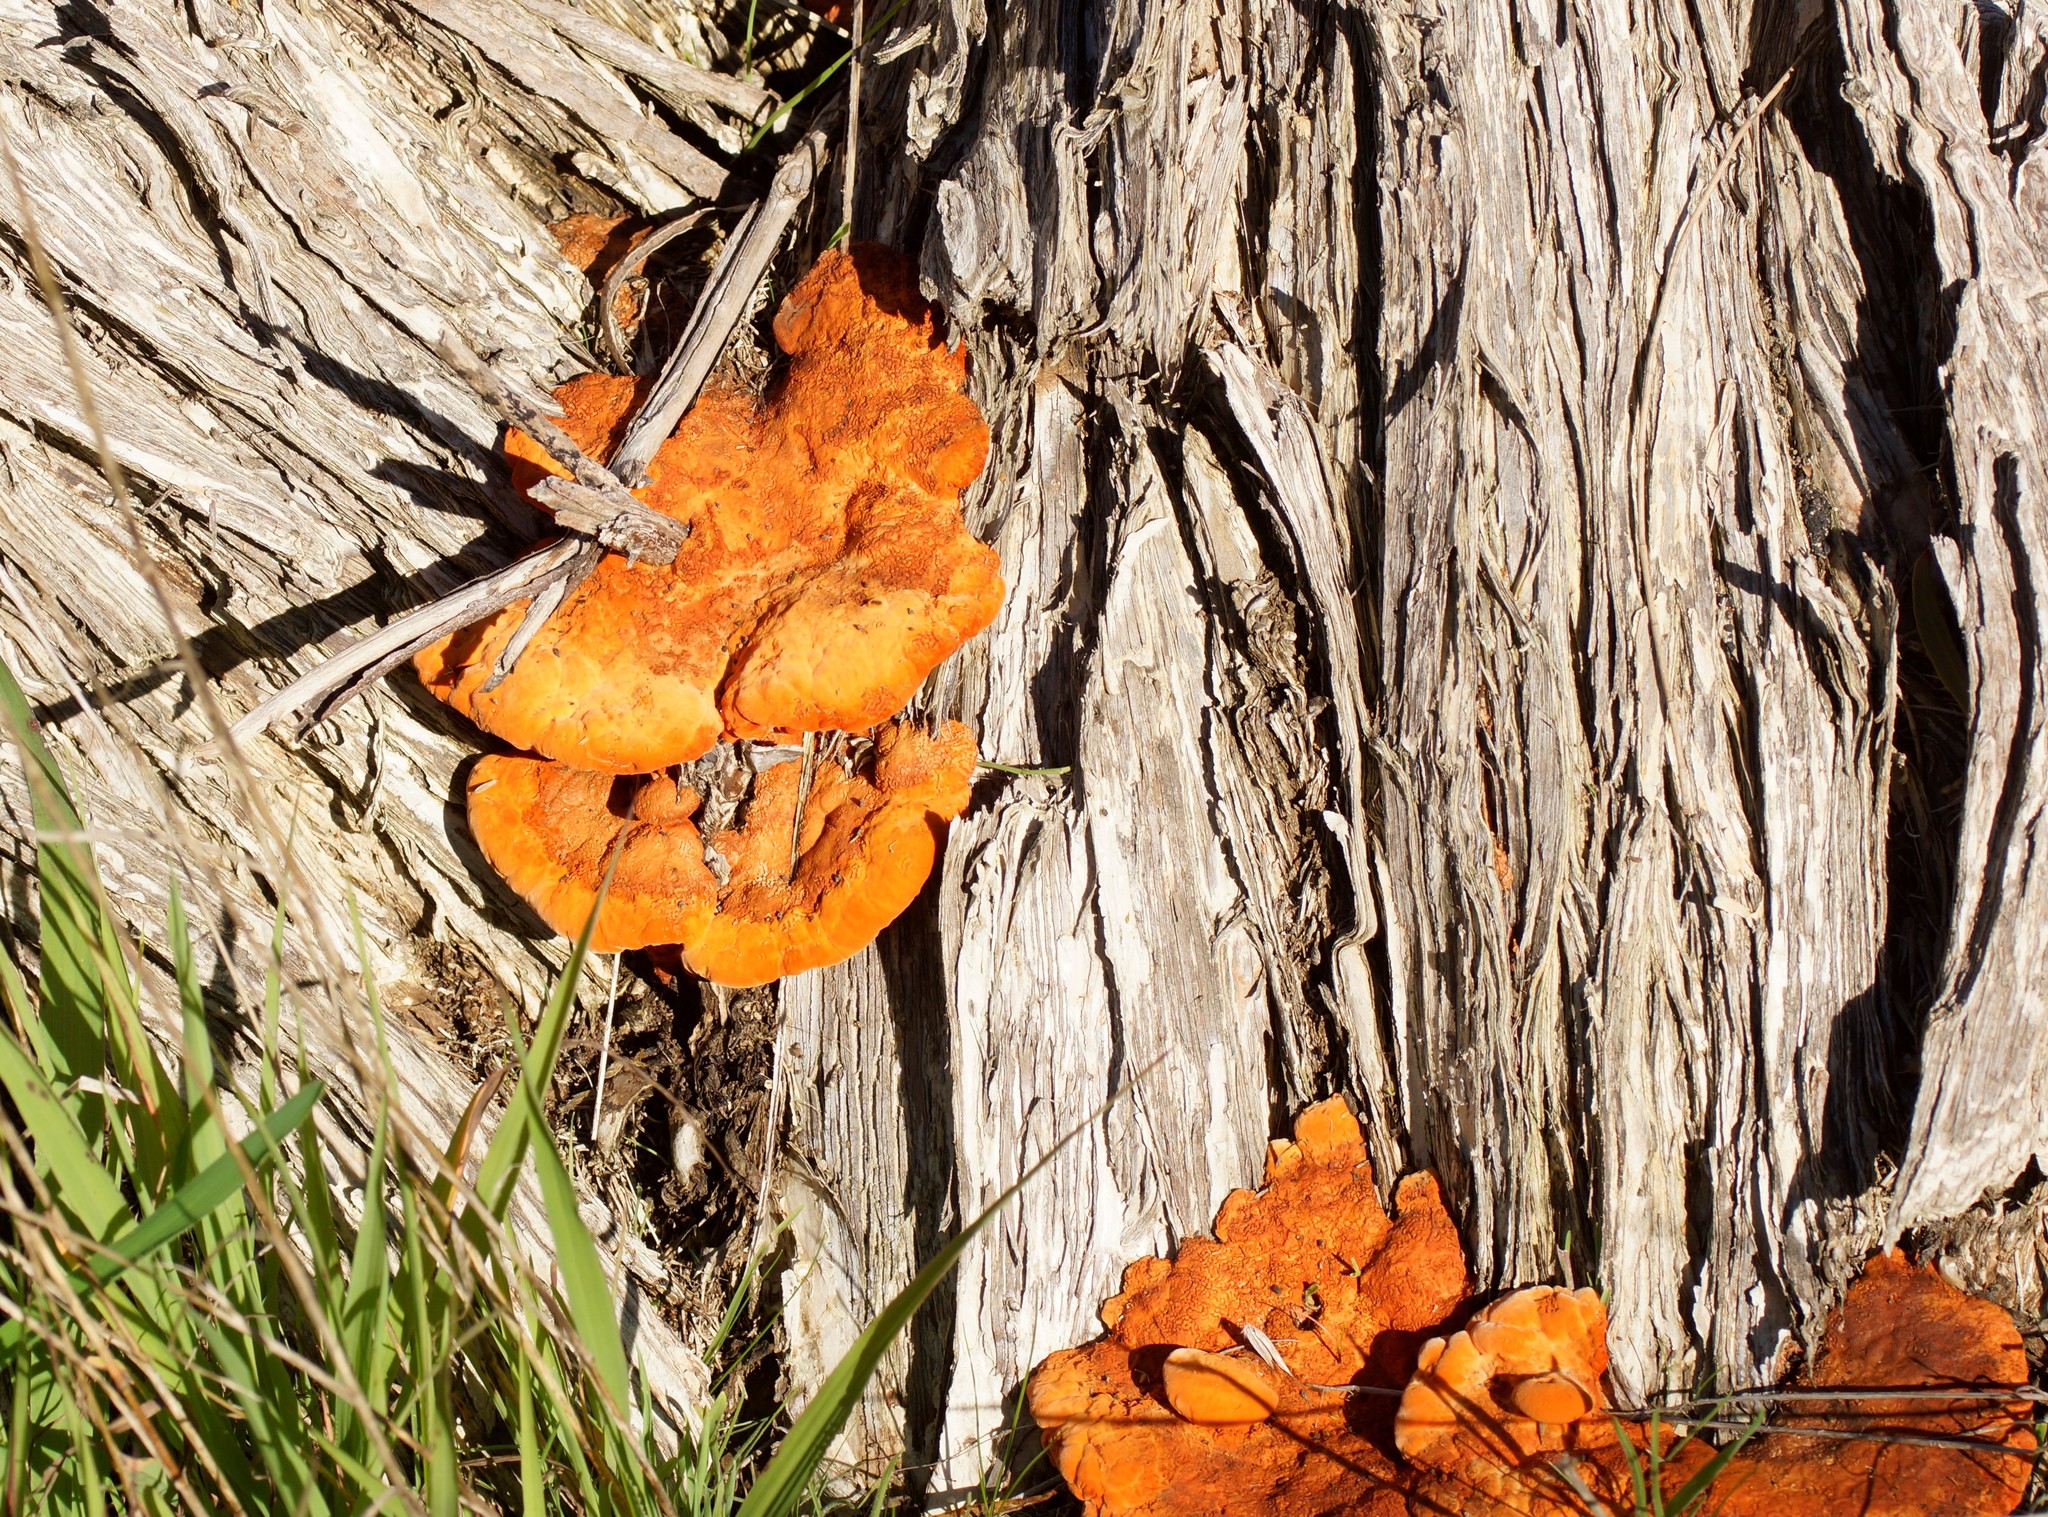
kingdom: Fungi
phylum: Basidiomycota
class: Agaricomycetes
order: Polyporales
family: Polyporaceae
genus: Trametes
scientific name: Trametes coccinea
